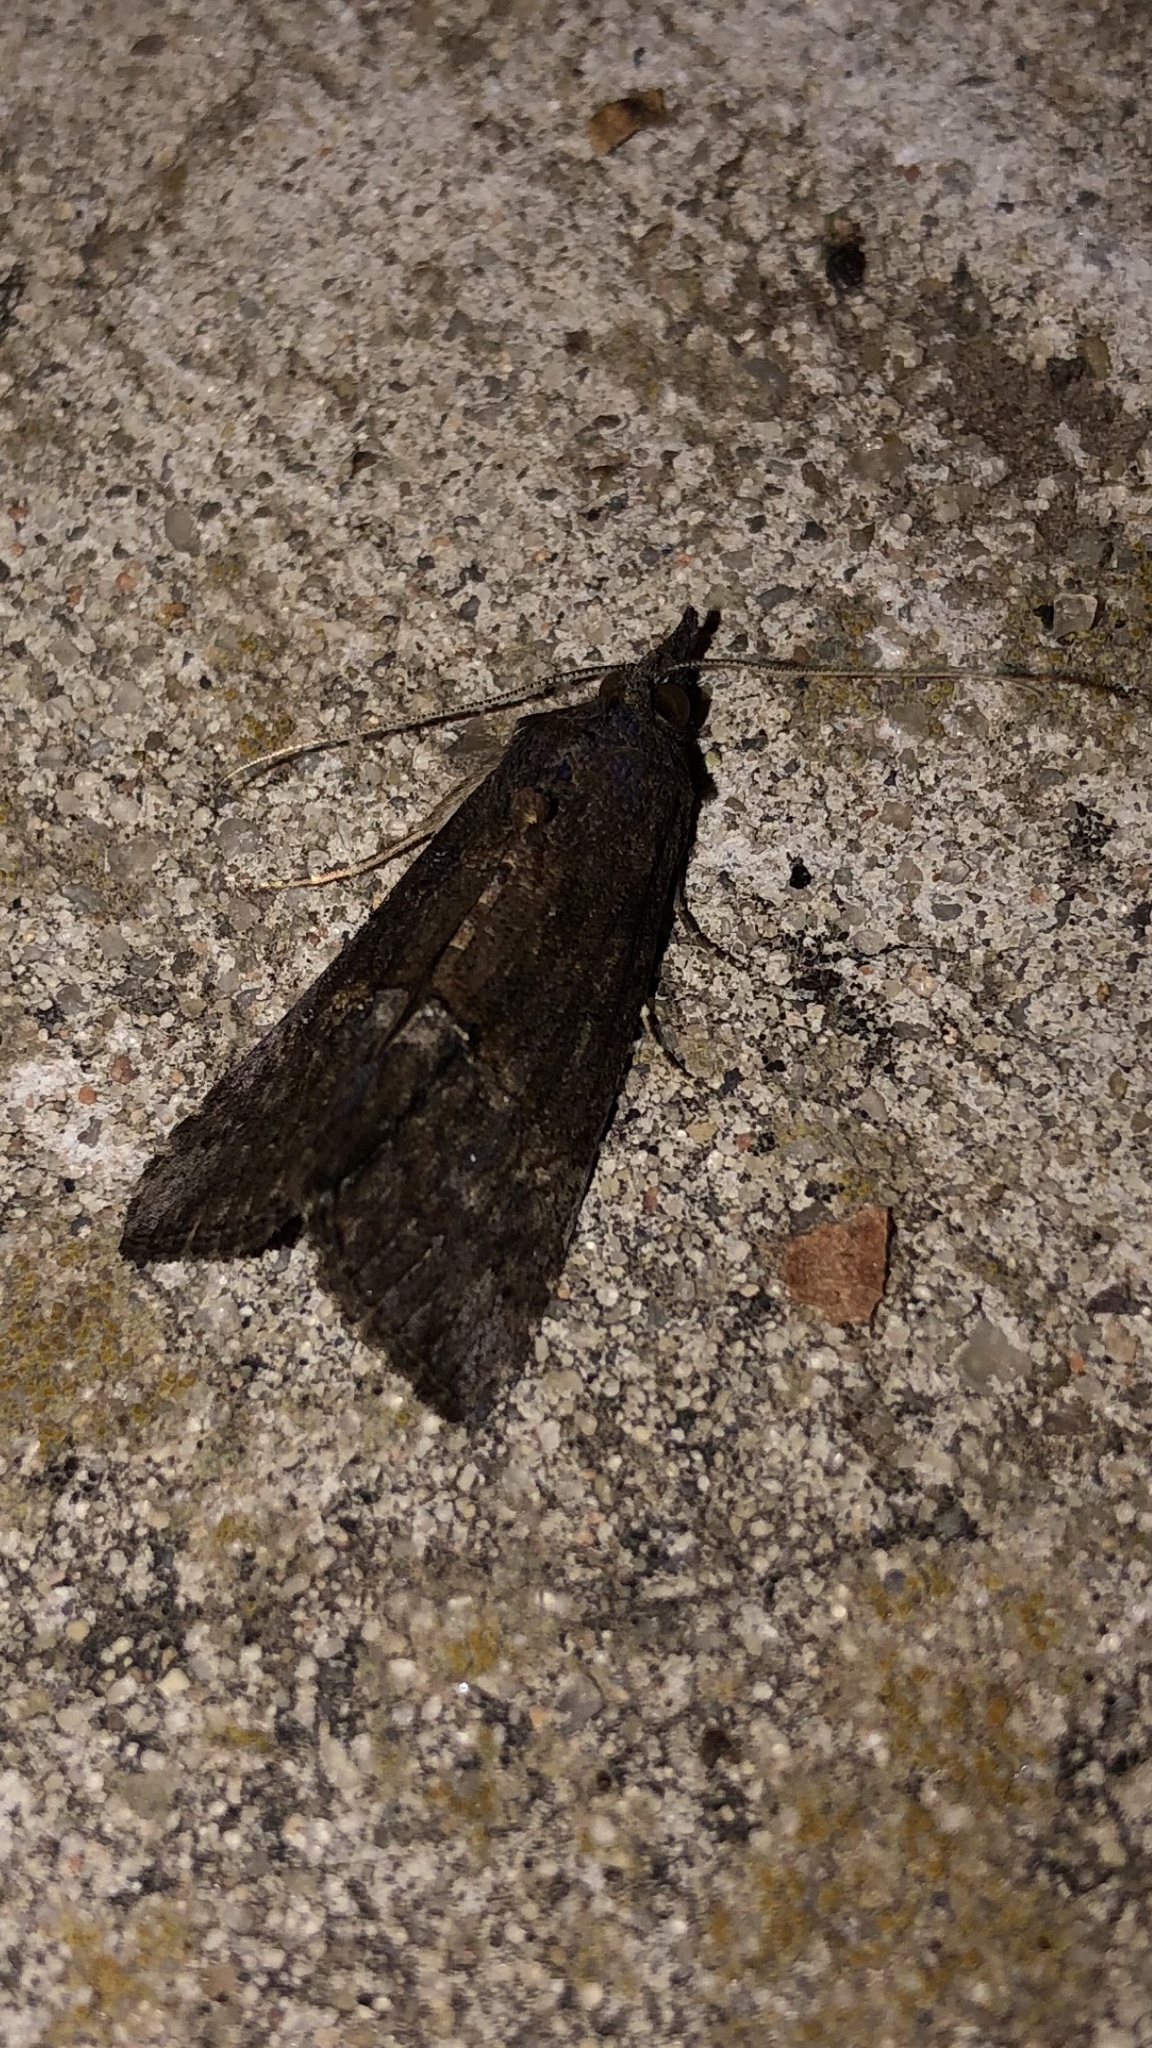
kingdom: Animalia
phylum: Arthropoda
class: Insecta
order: Lepidoptera
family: Erebidae
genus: Hypena
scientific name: Hypena scabra
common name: Green cloverworm
